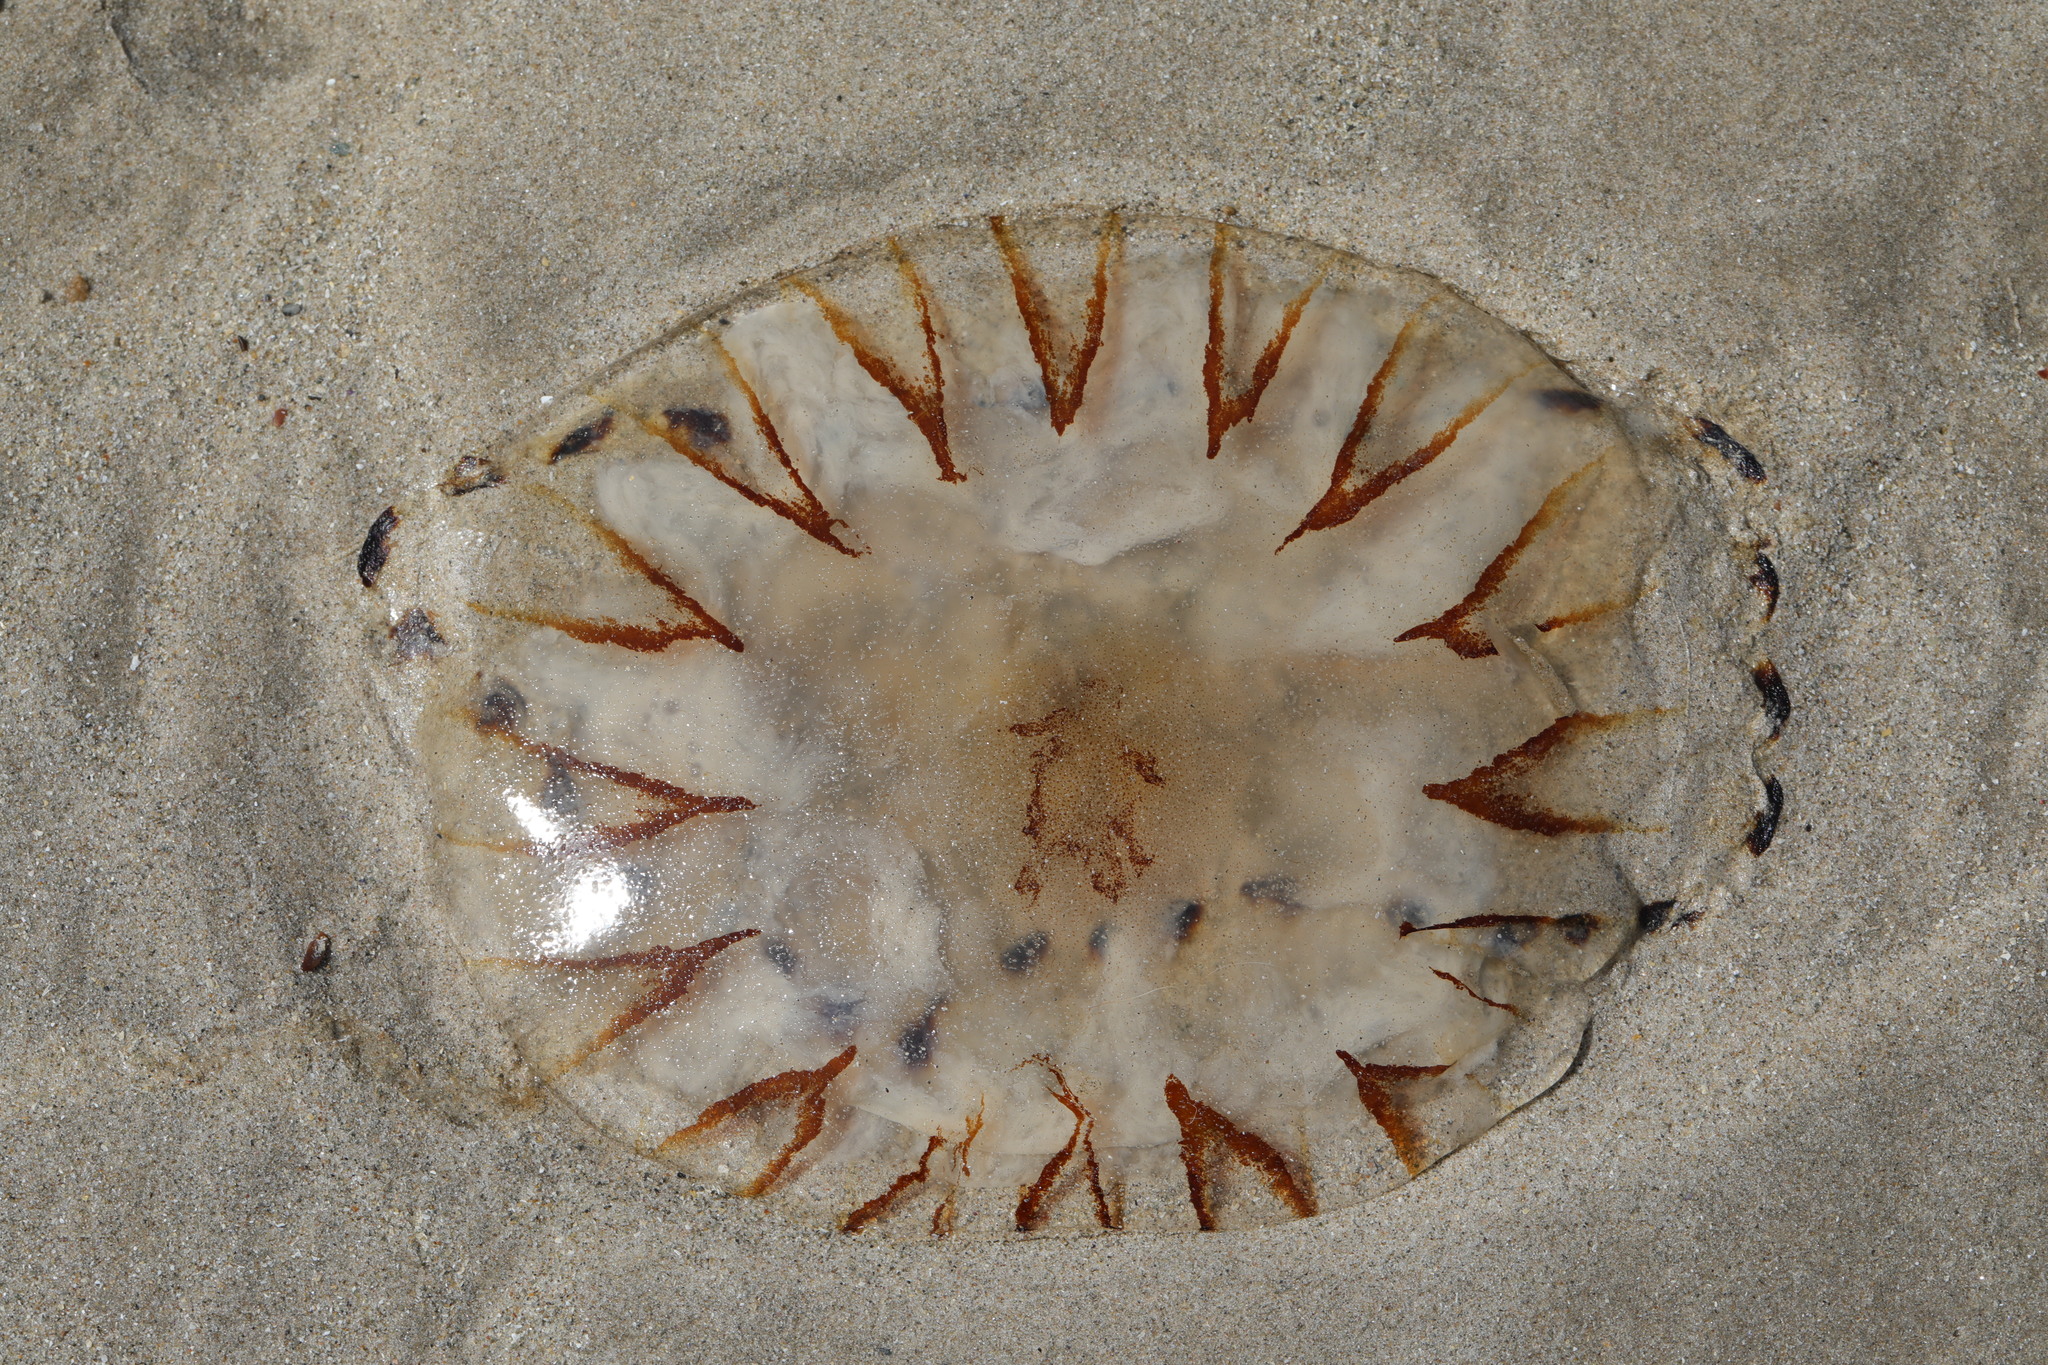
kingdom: Animalia
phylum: Cnidaria
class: Scyphozoa
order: Semaeostomeae
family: Pelagiidae
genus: Chrysaora
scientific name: Chrysaora hysoscella
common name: Compass jellyfish
